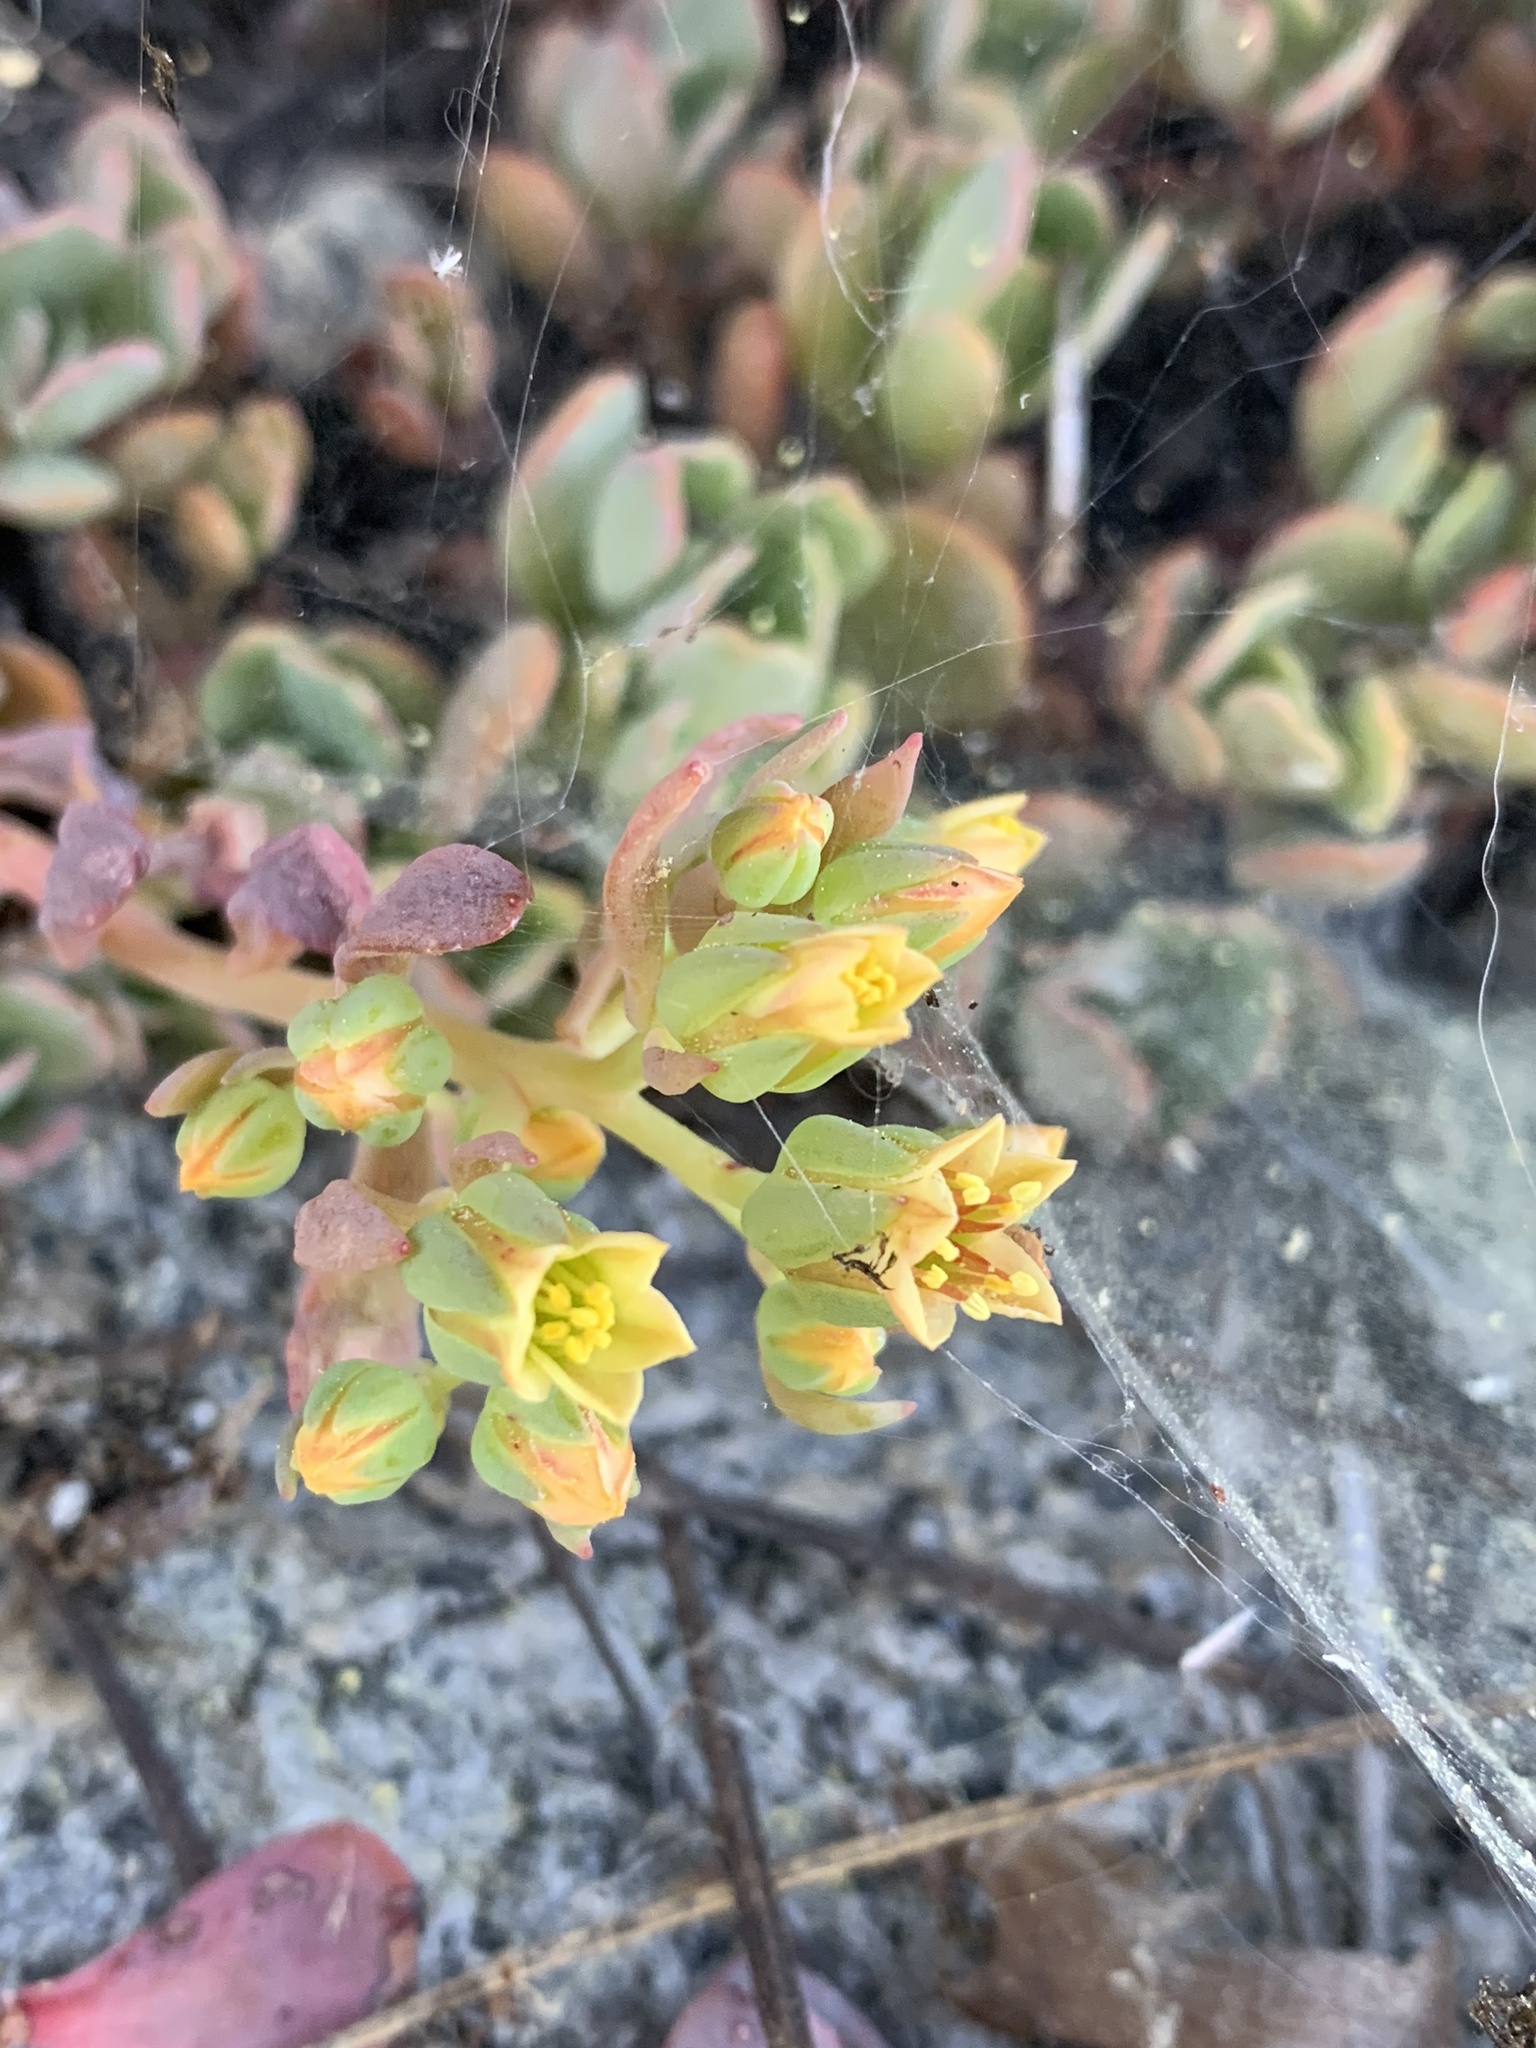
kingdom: Plantae
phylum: Tracheophyta
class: Magnoliopsida
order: Saxifragales
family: Crassulaceae
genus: Sedum
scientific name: Sedum obtusatum
